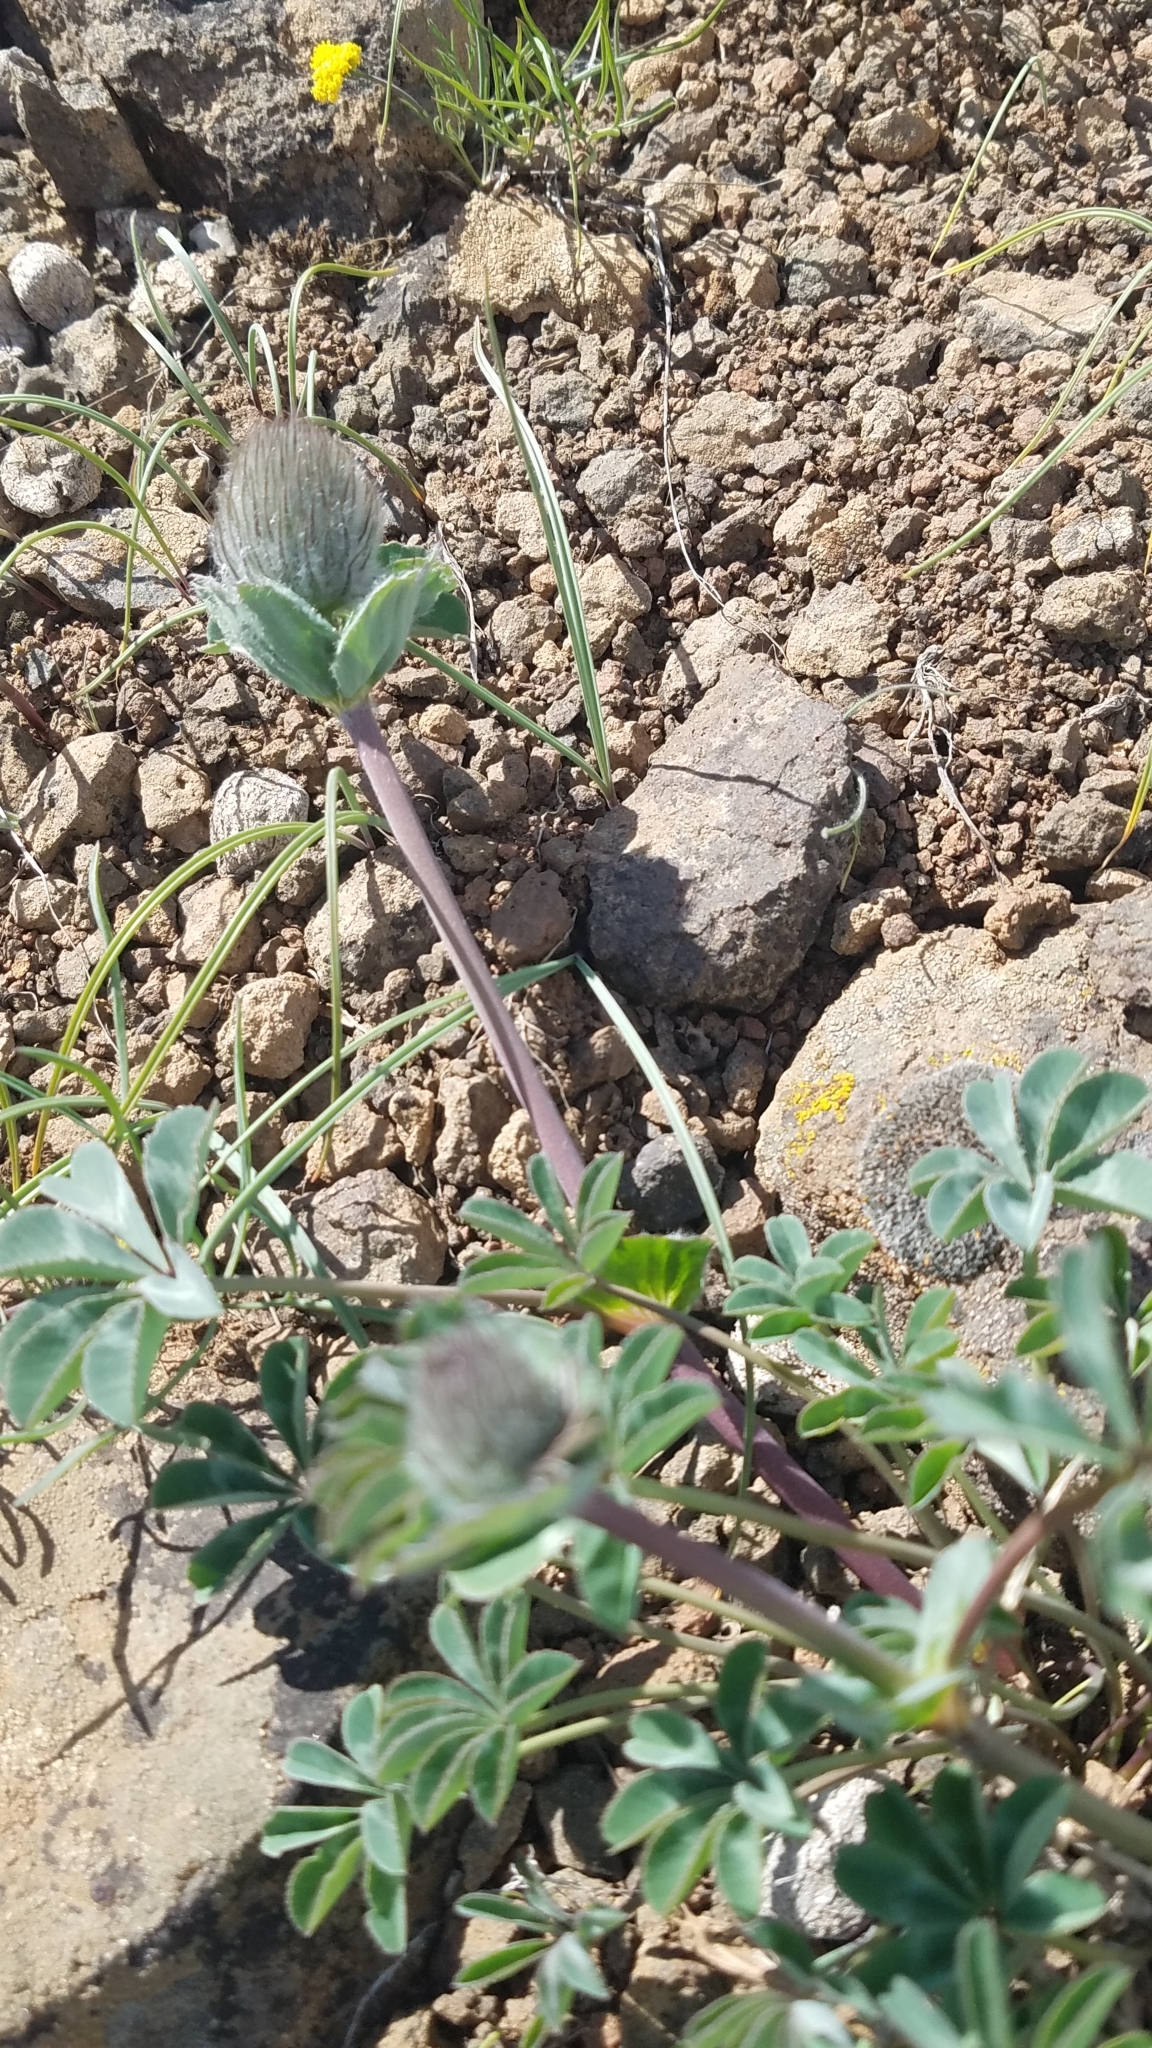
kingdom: Plantae
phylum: Tracheophyta
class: Magnoliopsida
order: Fabales
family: Fabaceae
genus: Trifolium
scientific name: Trifolium macrocephalum
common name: Large-head clover
